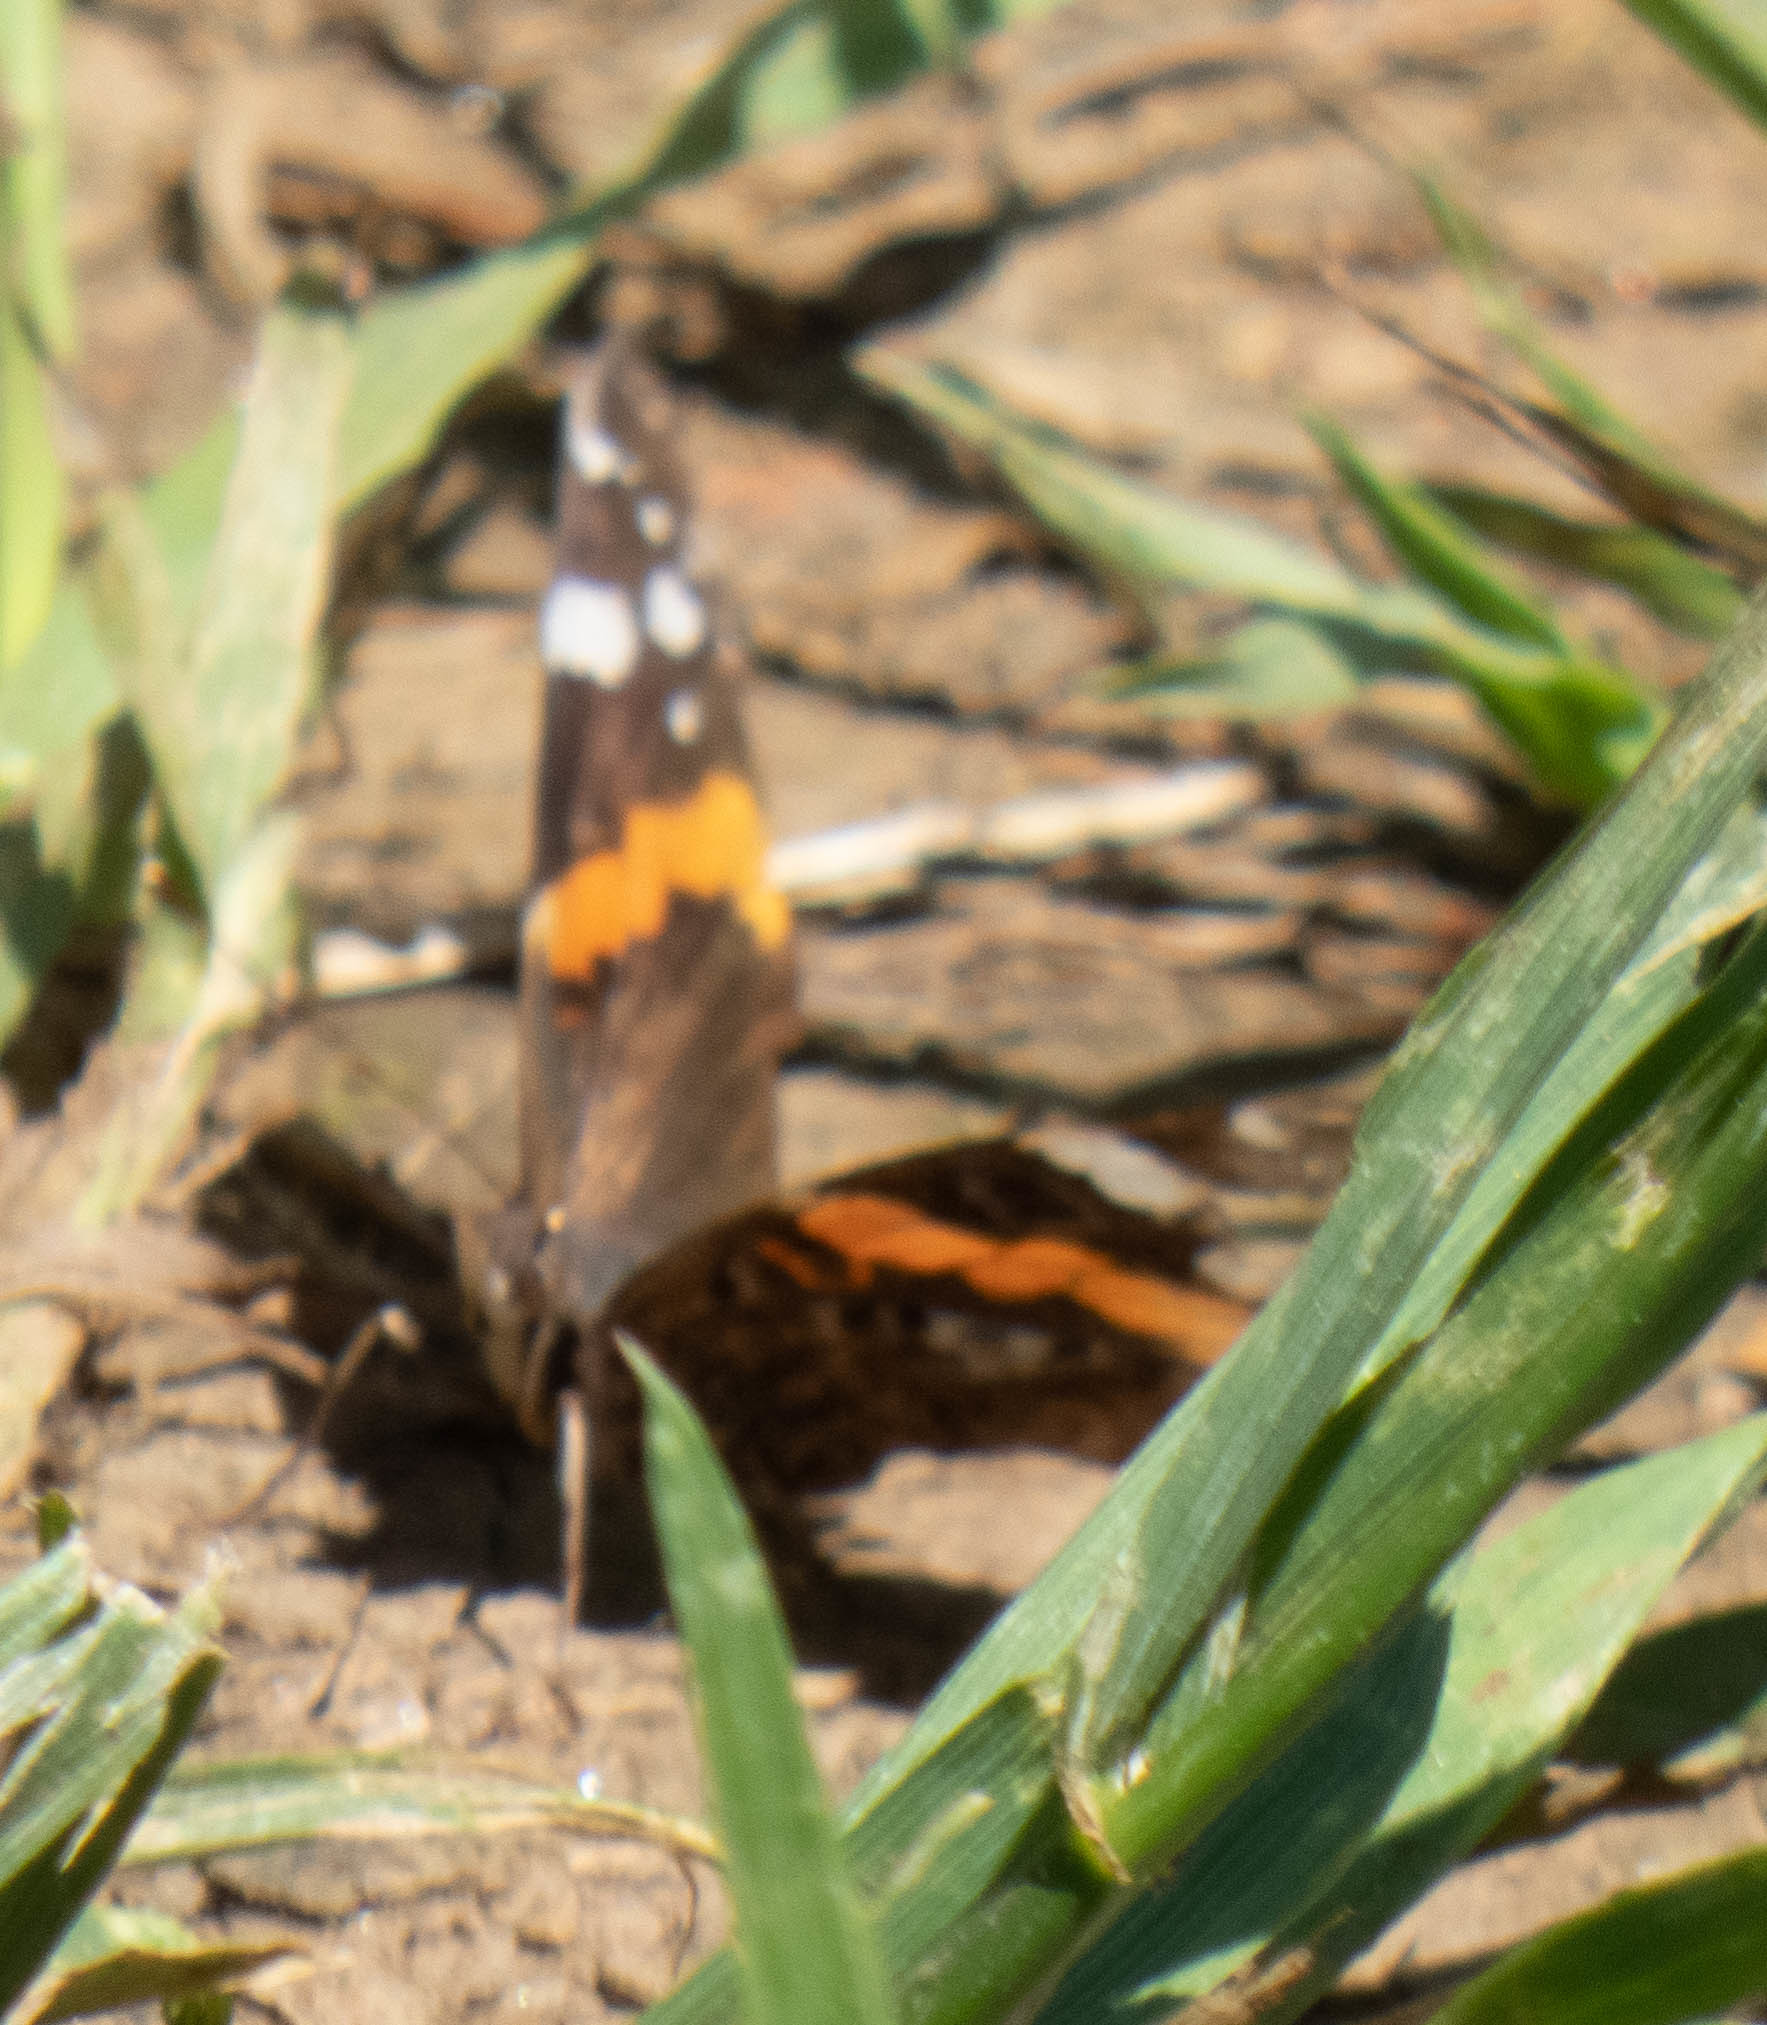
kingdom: Animalia
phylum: Arthropoda
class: Insecta
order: Lepidoptera
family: Nymphalidae
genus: Vanessa
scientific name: Vanessa atalanta
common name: Red admiral
